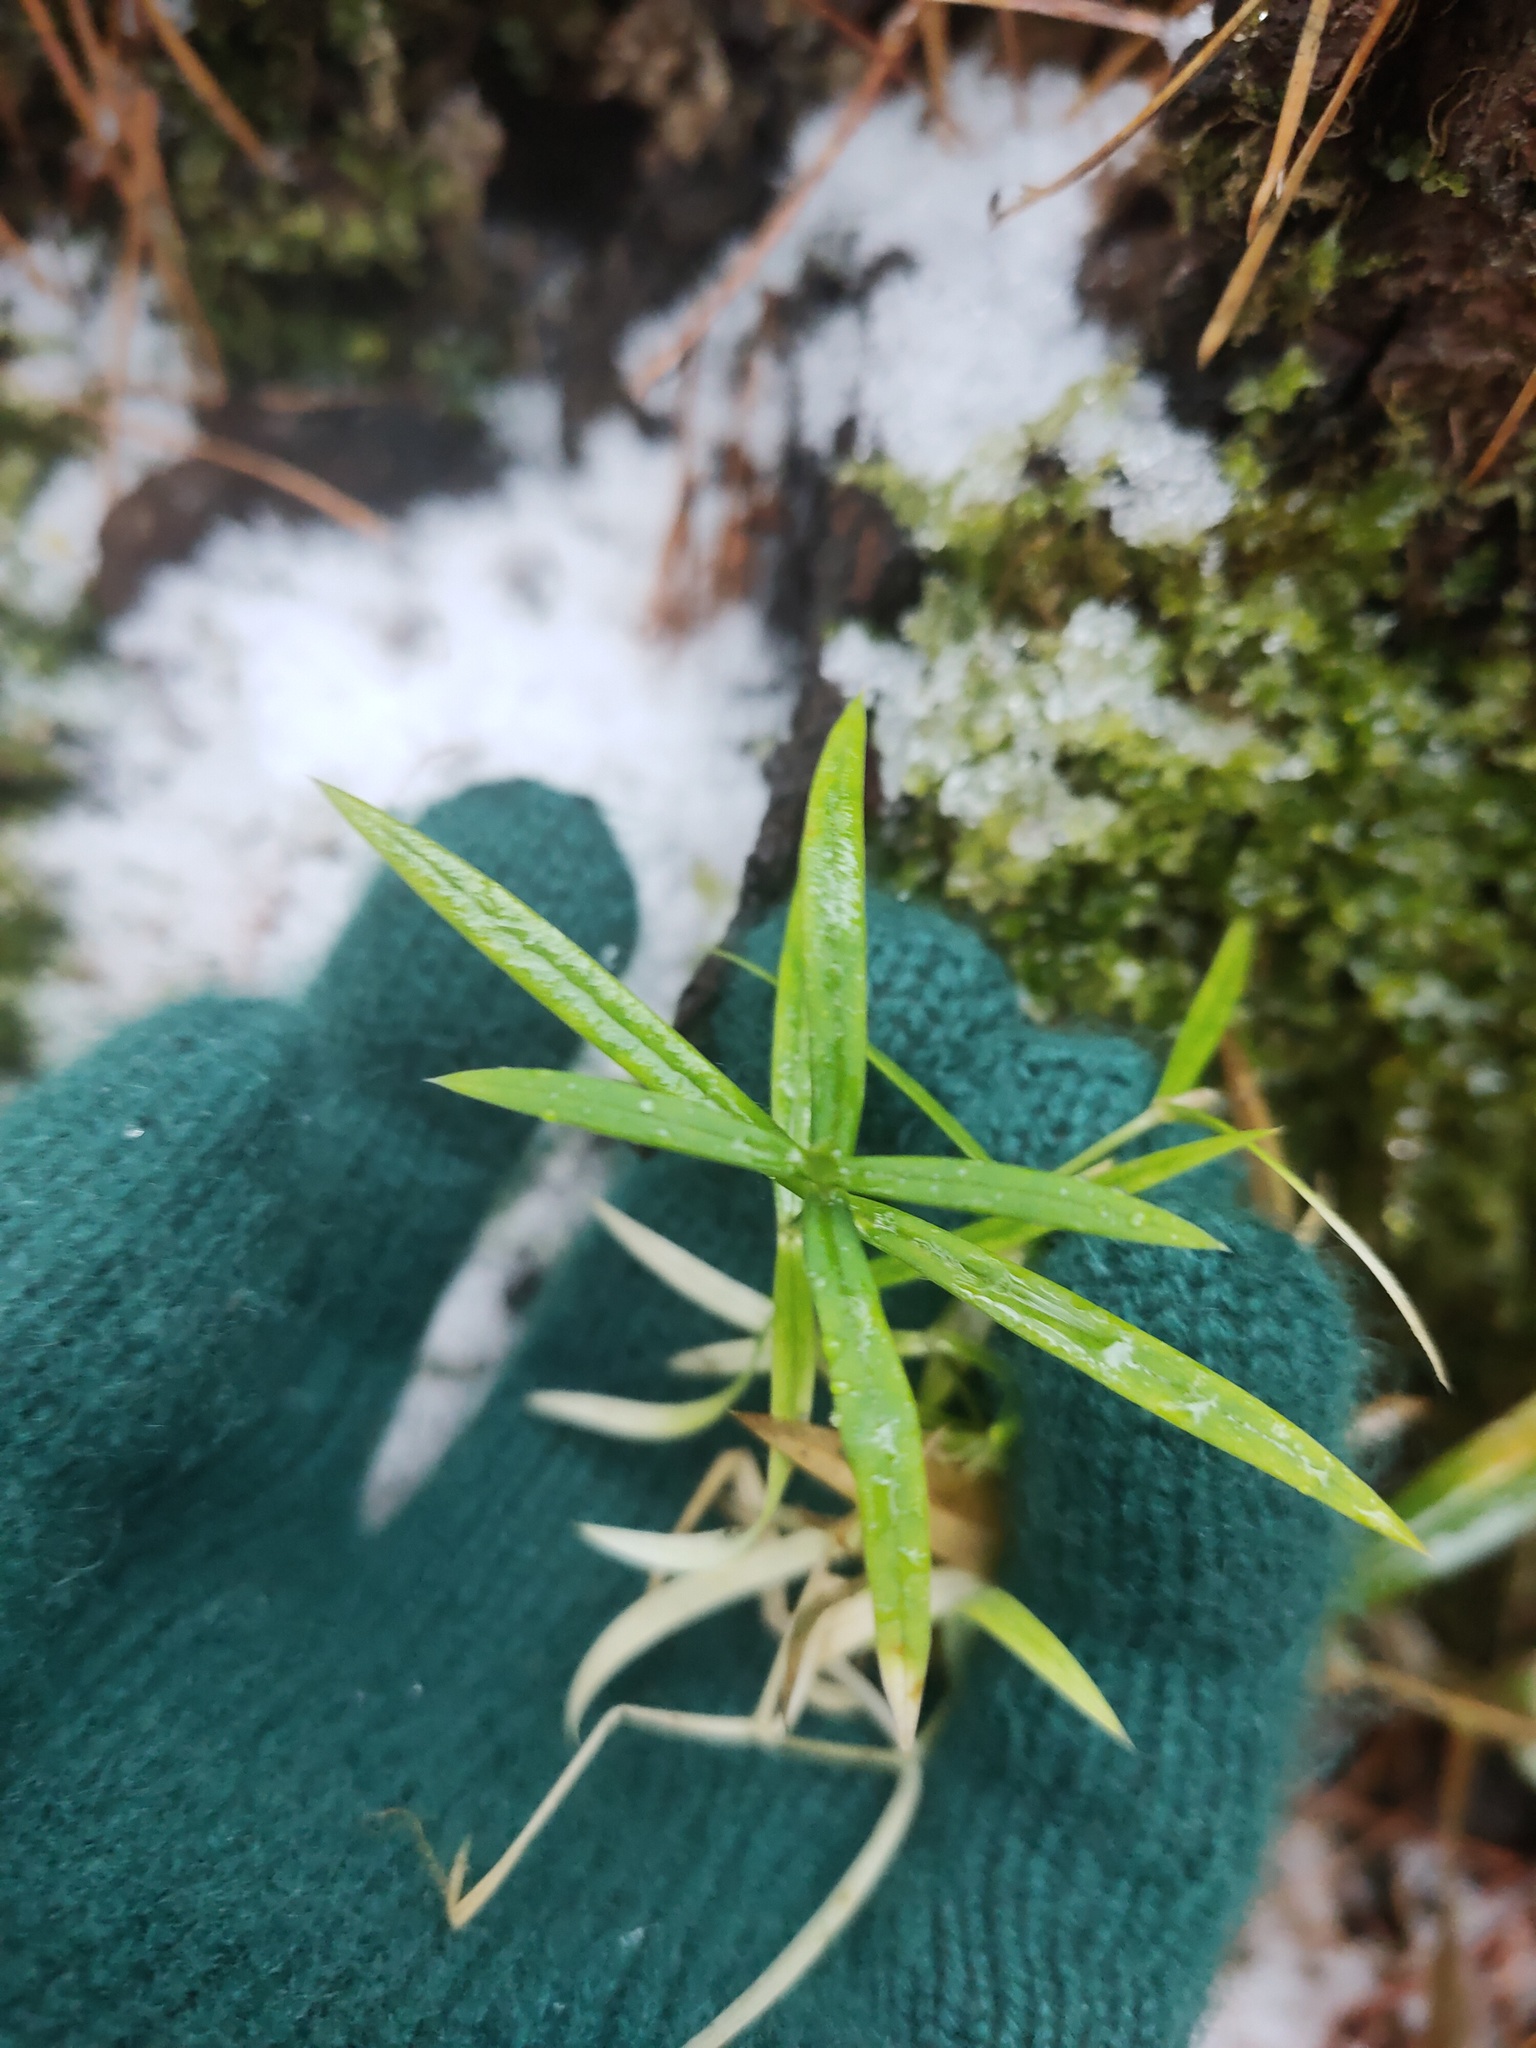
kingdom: Plantae
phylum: Tracheophyta
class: Magnoliopsida
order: Caryophyllales
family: Caryophyllaceae
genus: Rabelera
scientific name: Rabelera holostea
